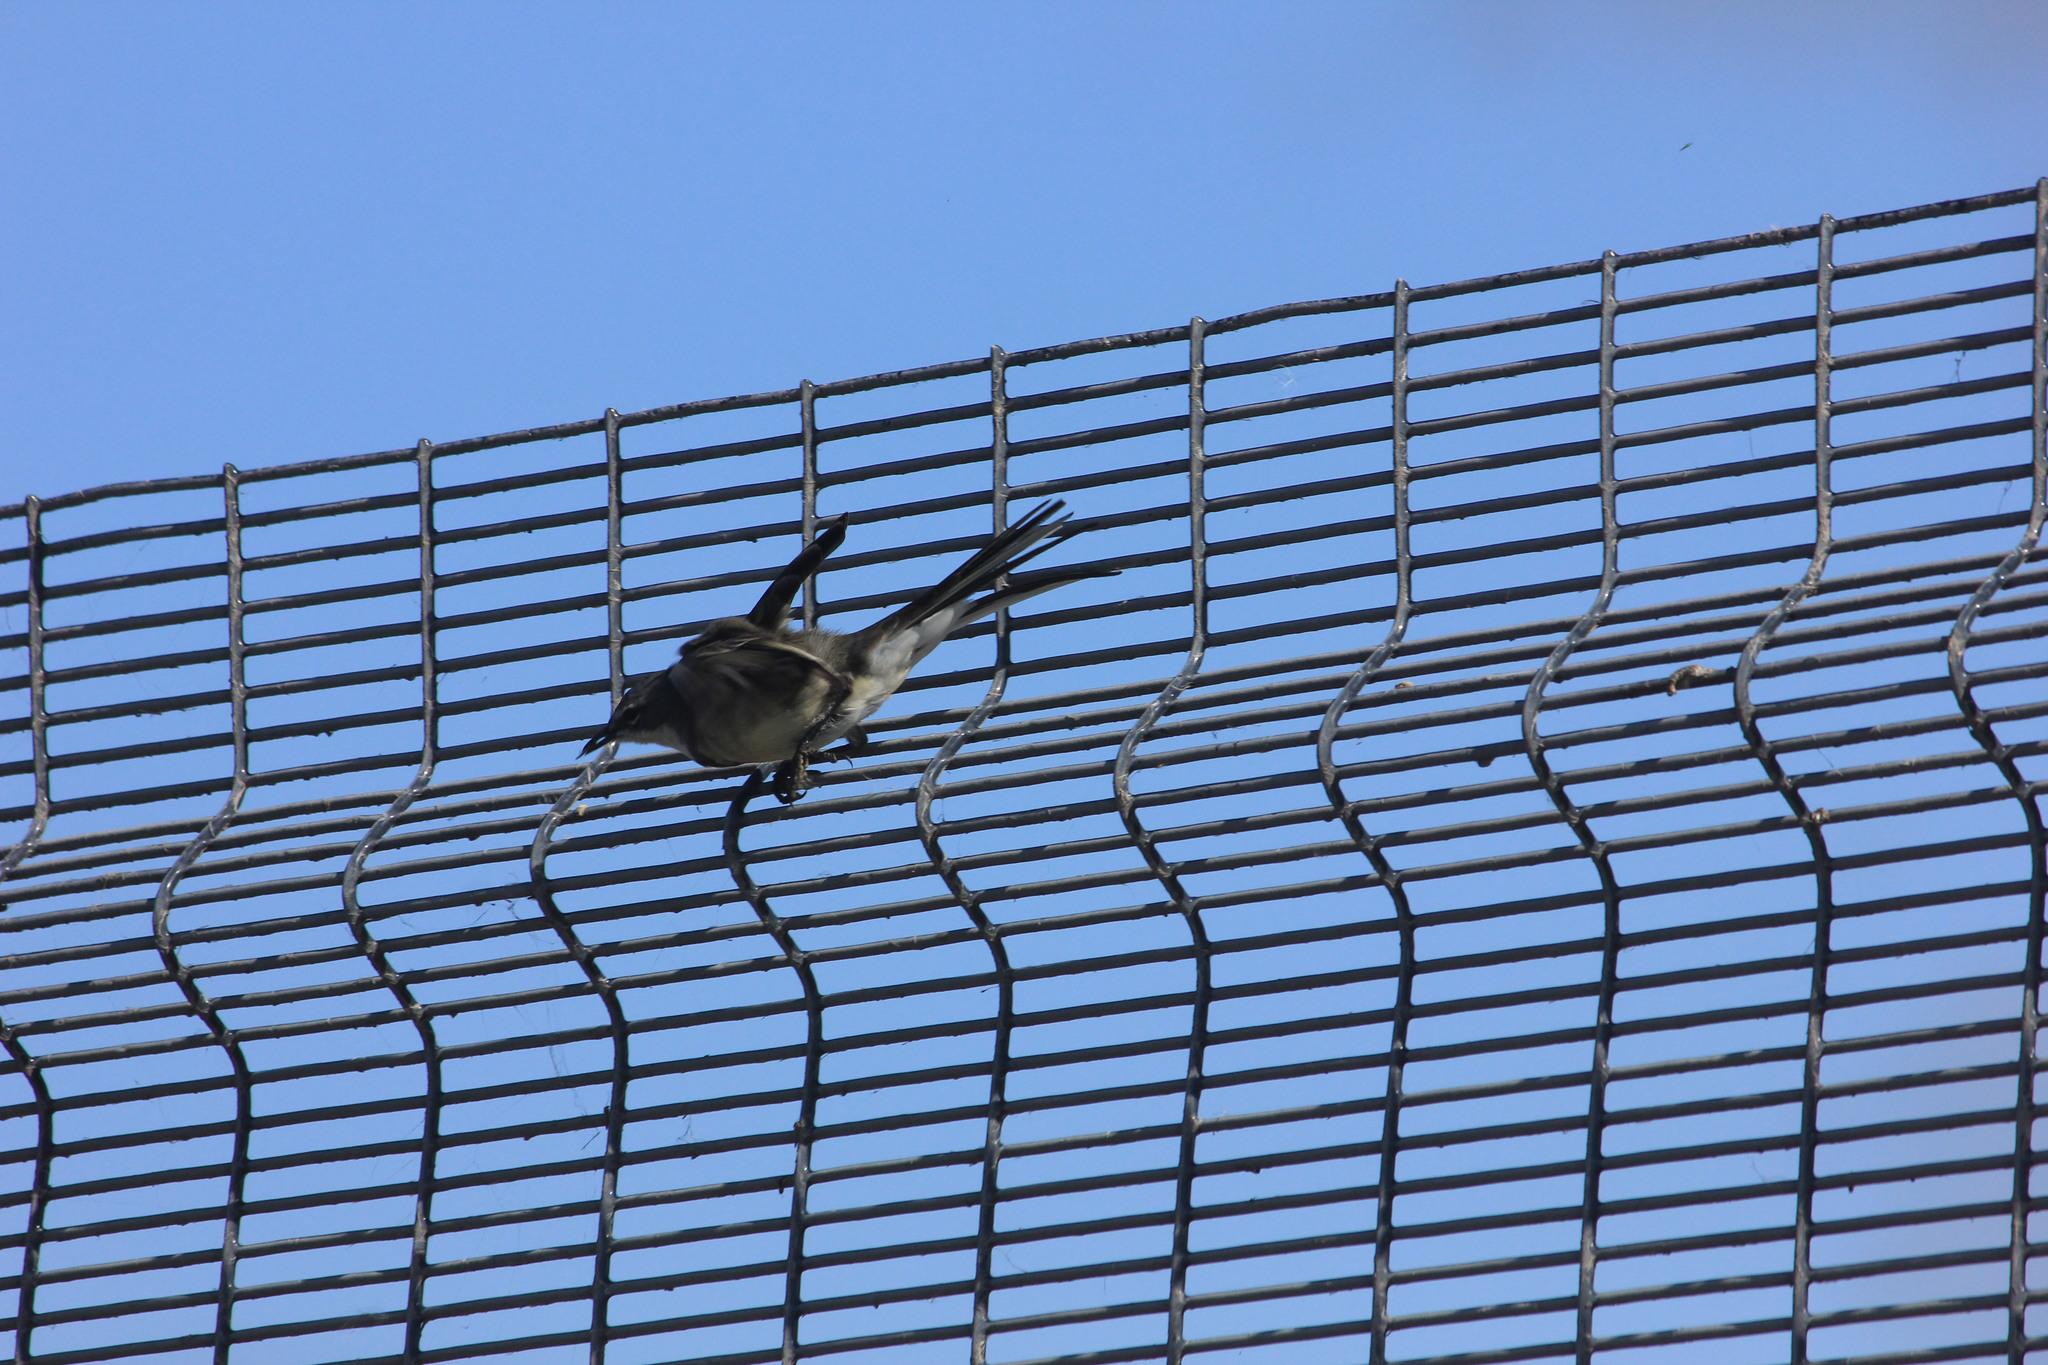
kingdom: Animalia
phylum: Chordata
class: Aves
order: Passeriformes
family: Motacillidae
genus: Motacilla
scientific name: Motacilla capensis
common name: Cape wagtail
